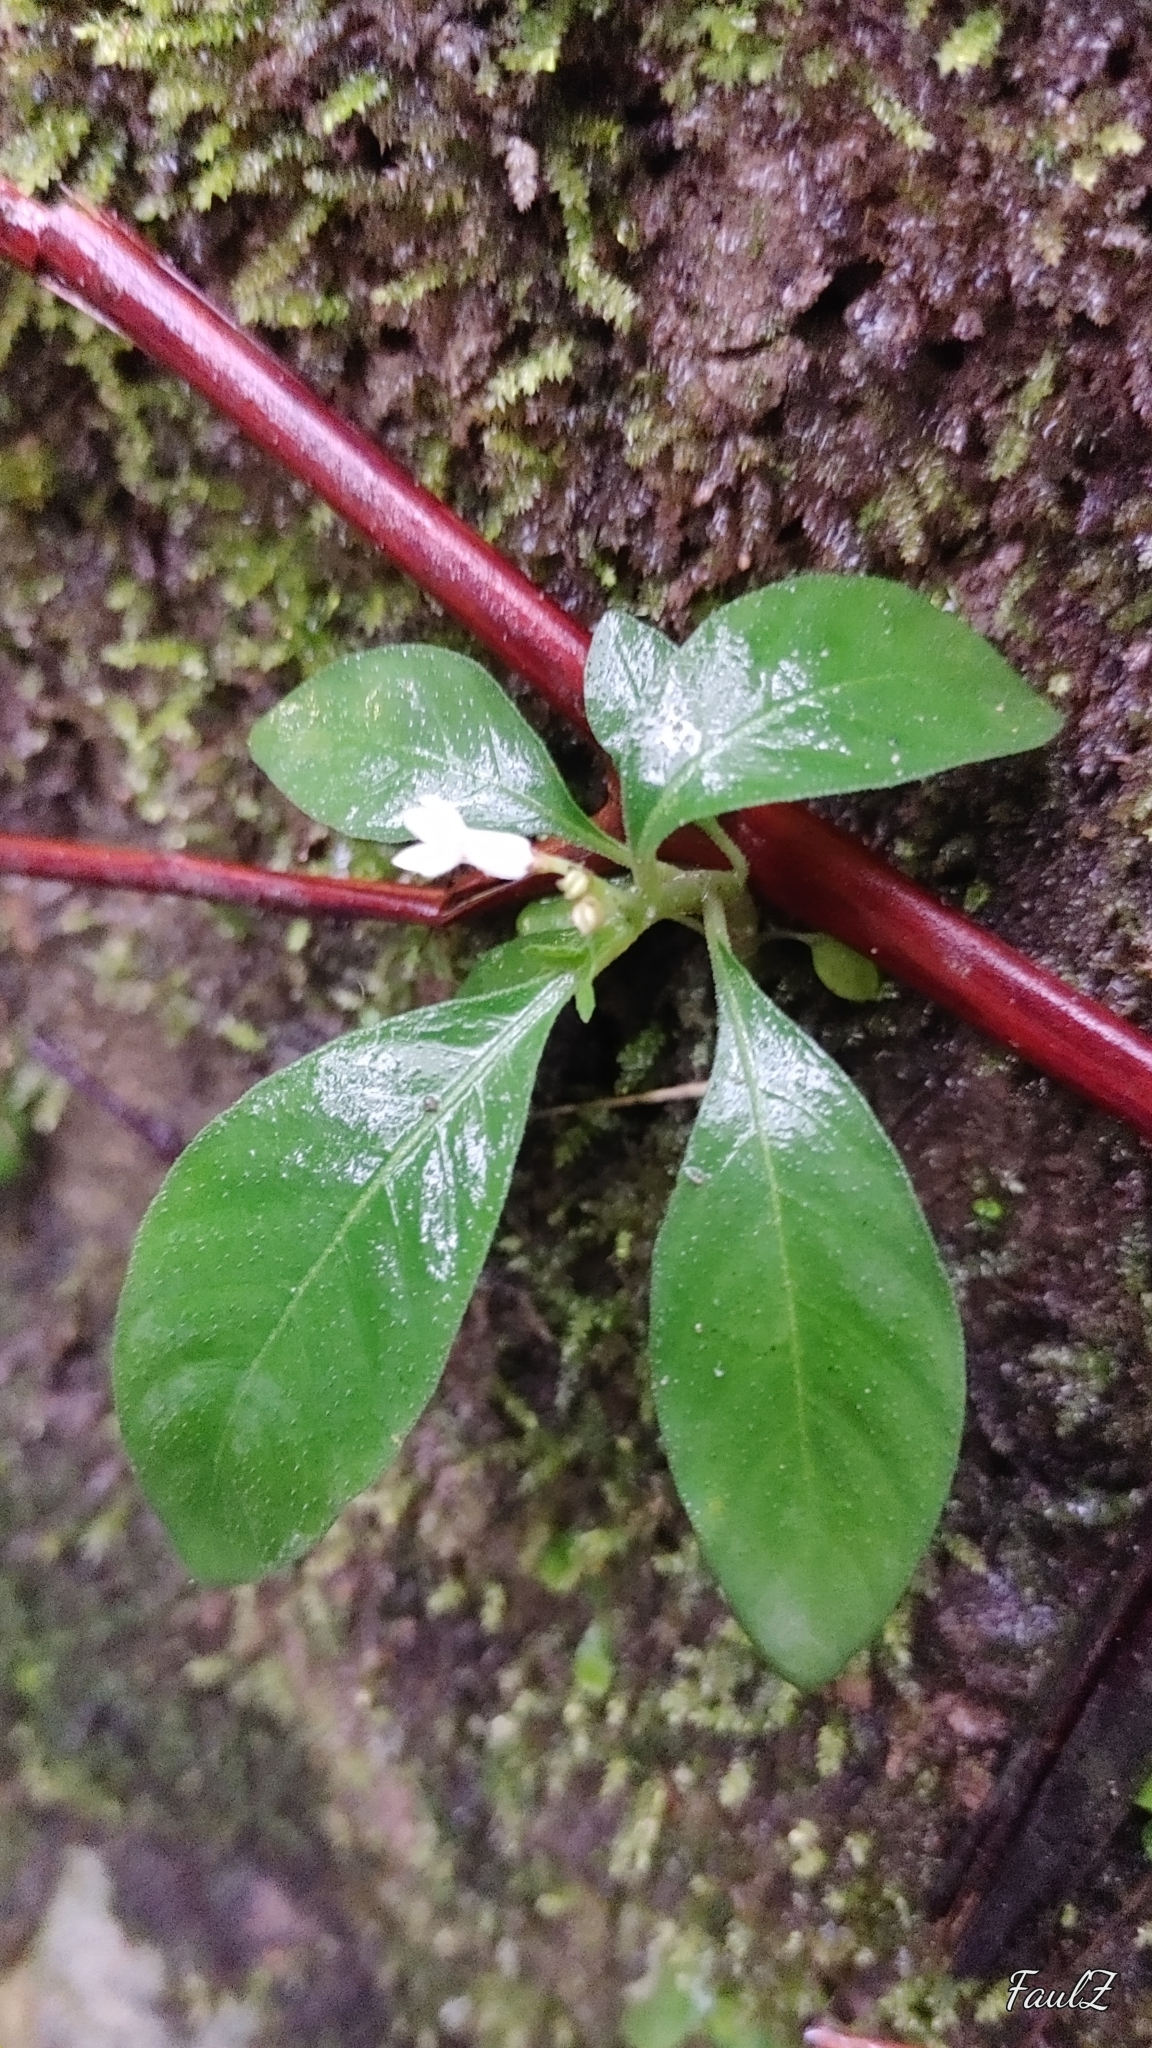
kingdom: Plantae
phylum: Tracheophyta
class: Magnoliopsida
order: Gentianales
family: Rubiaceae
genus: Ophiorrhiza
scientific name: Ophiorrhiza pumila
